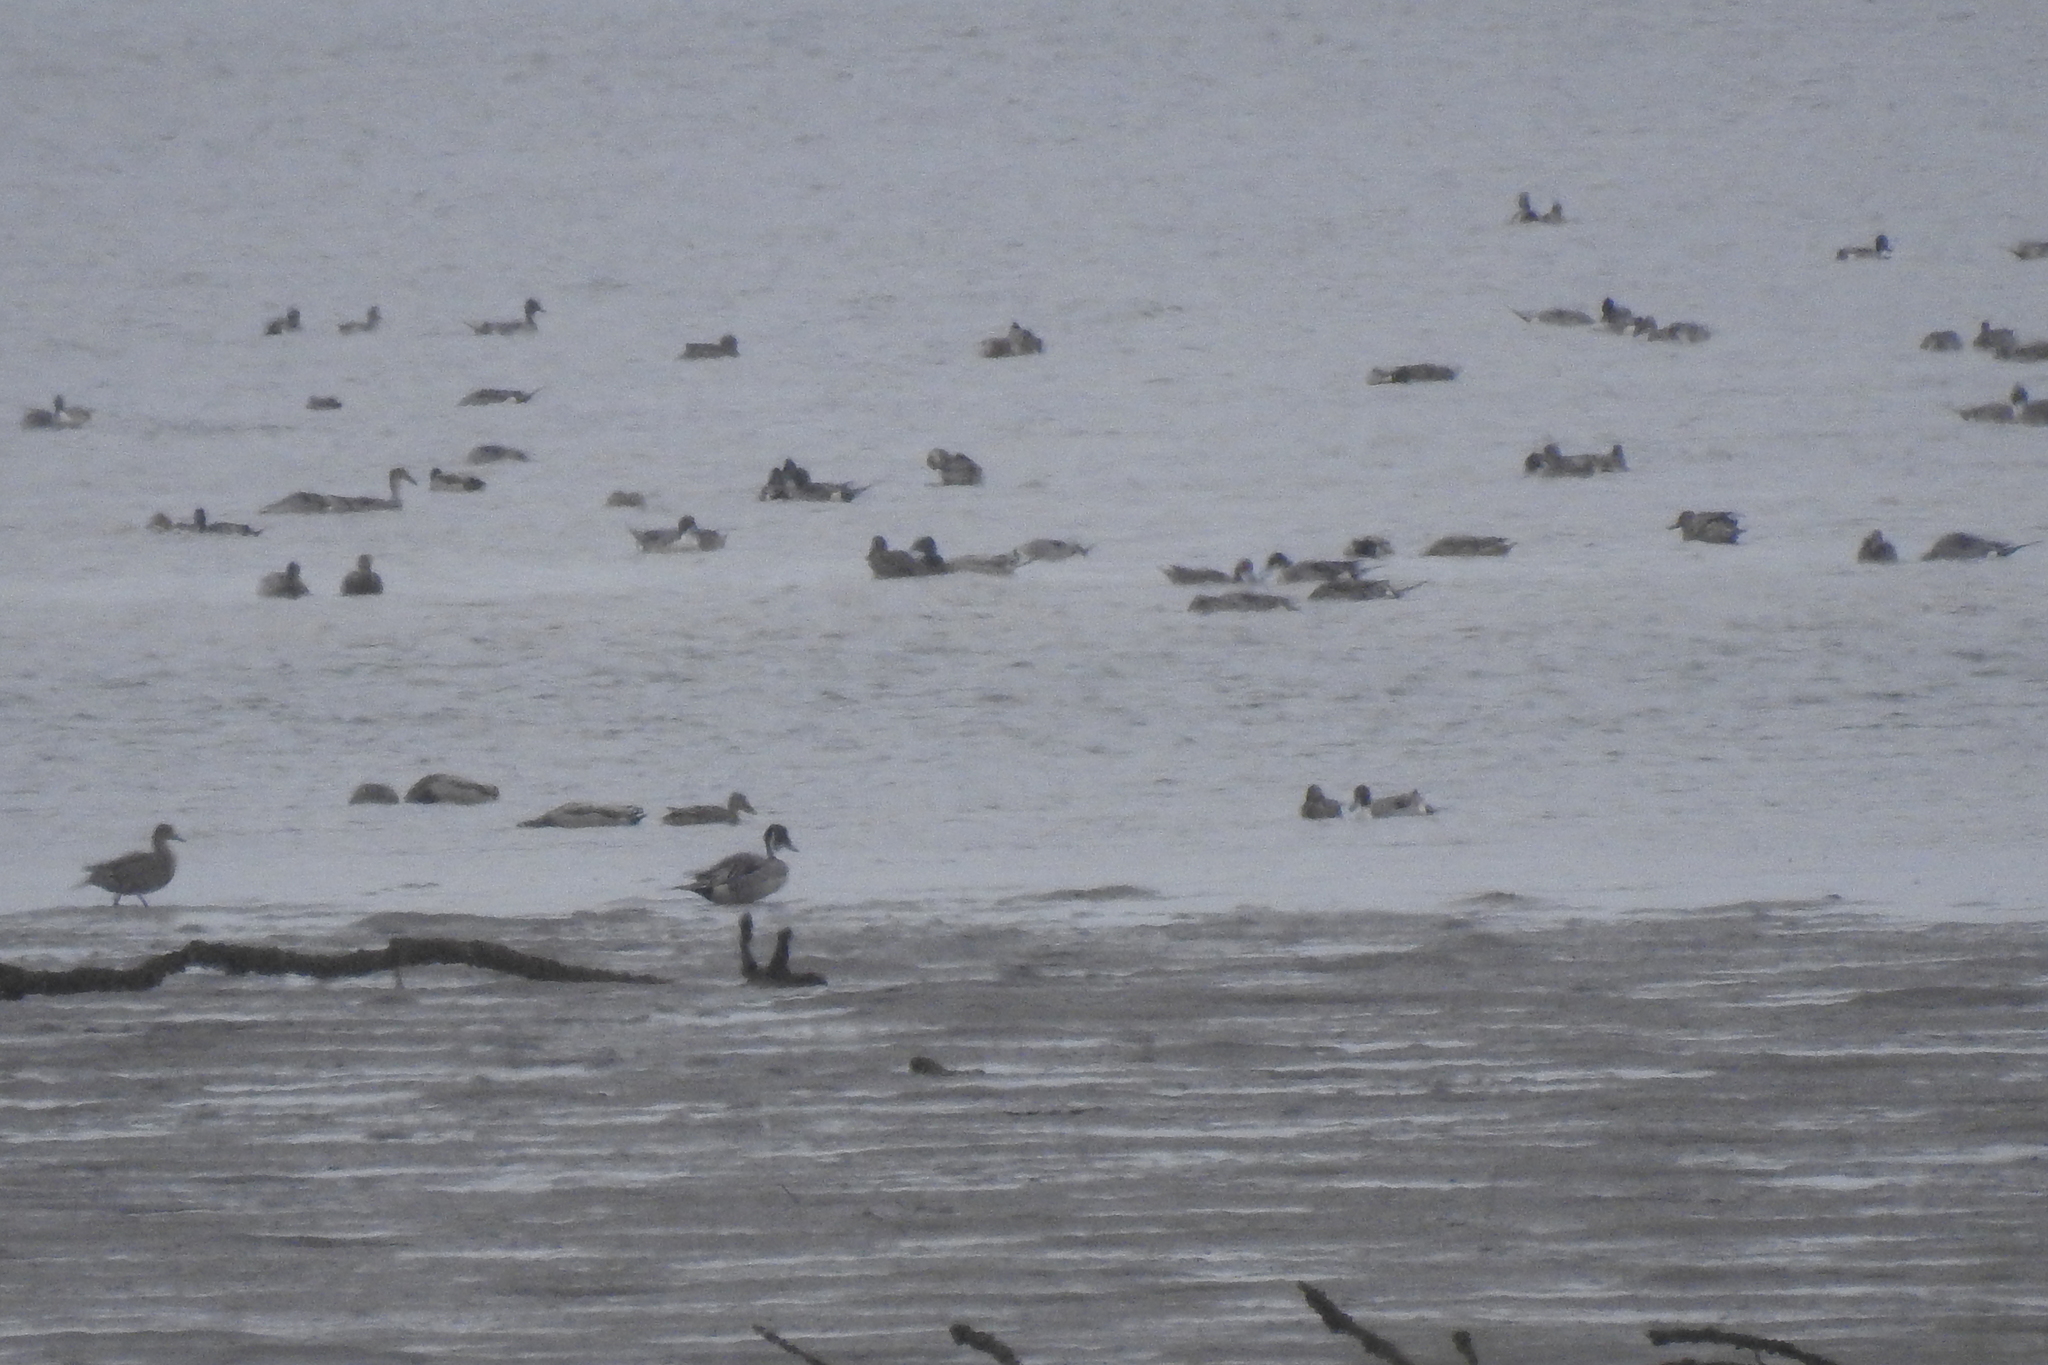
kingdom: Animalia
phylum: Chordata
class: Aves
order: Anseriformes
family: Anatidae
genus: Anas
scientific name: Anas acuta
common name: Northern pintail
